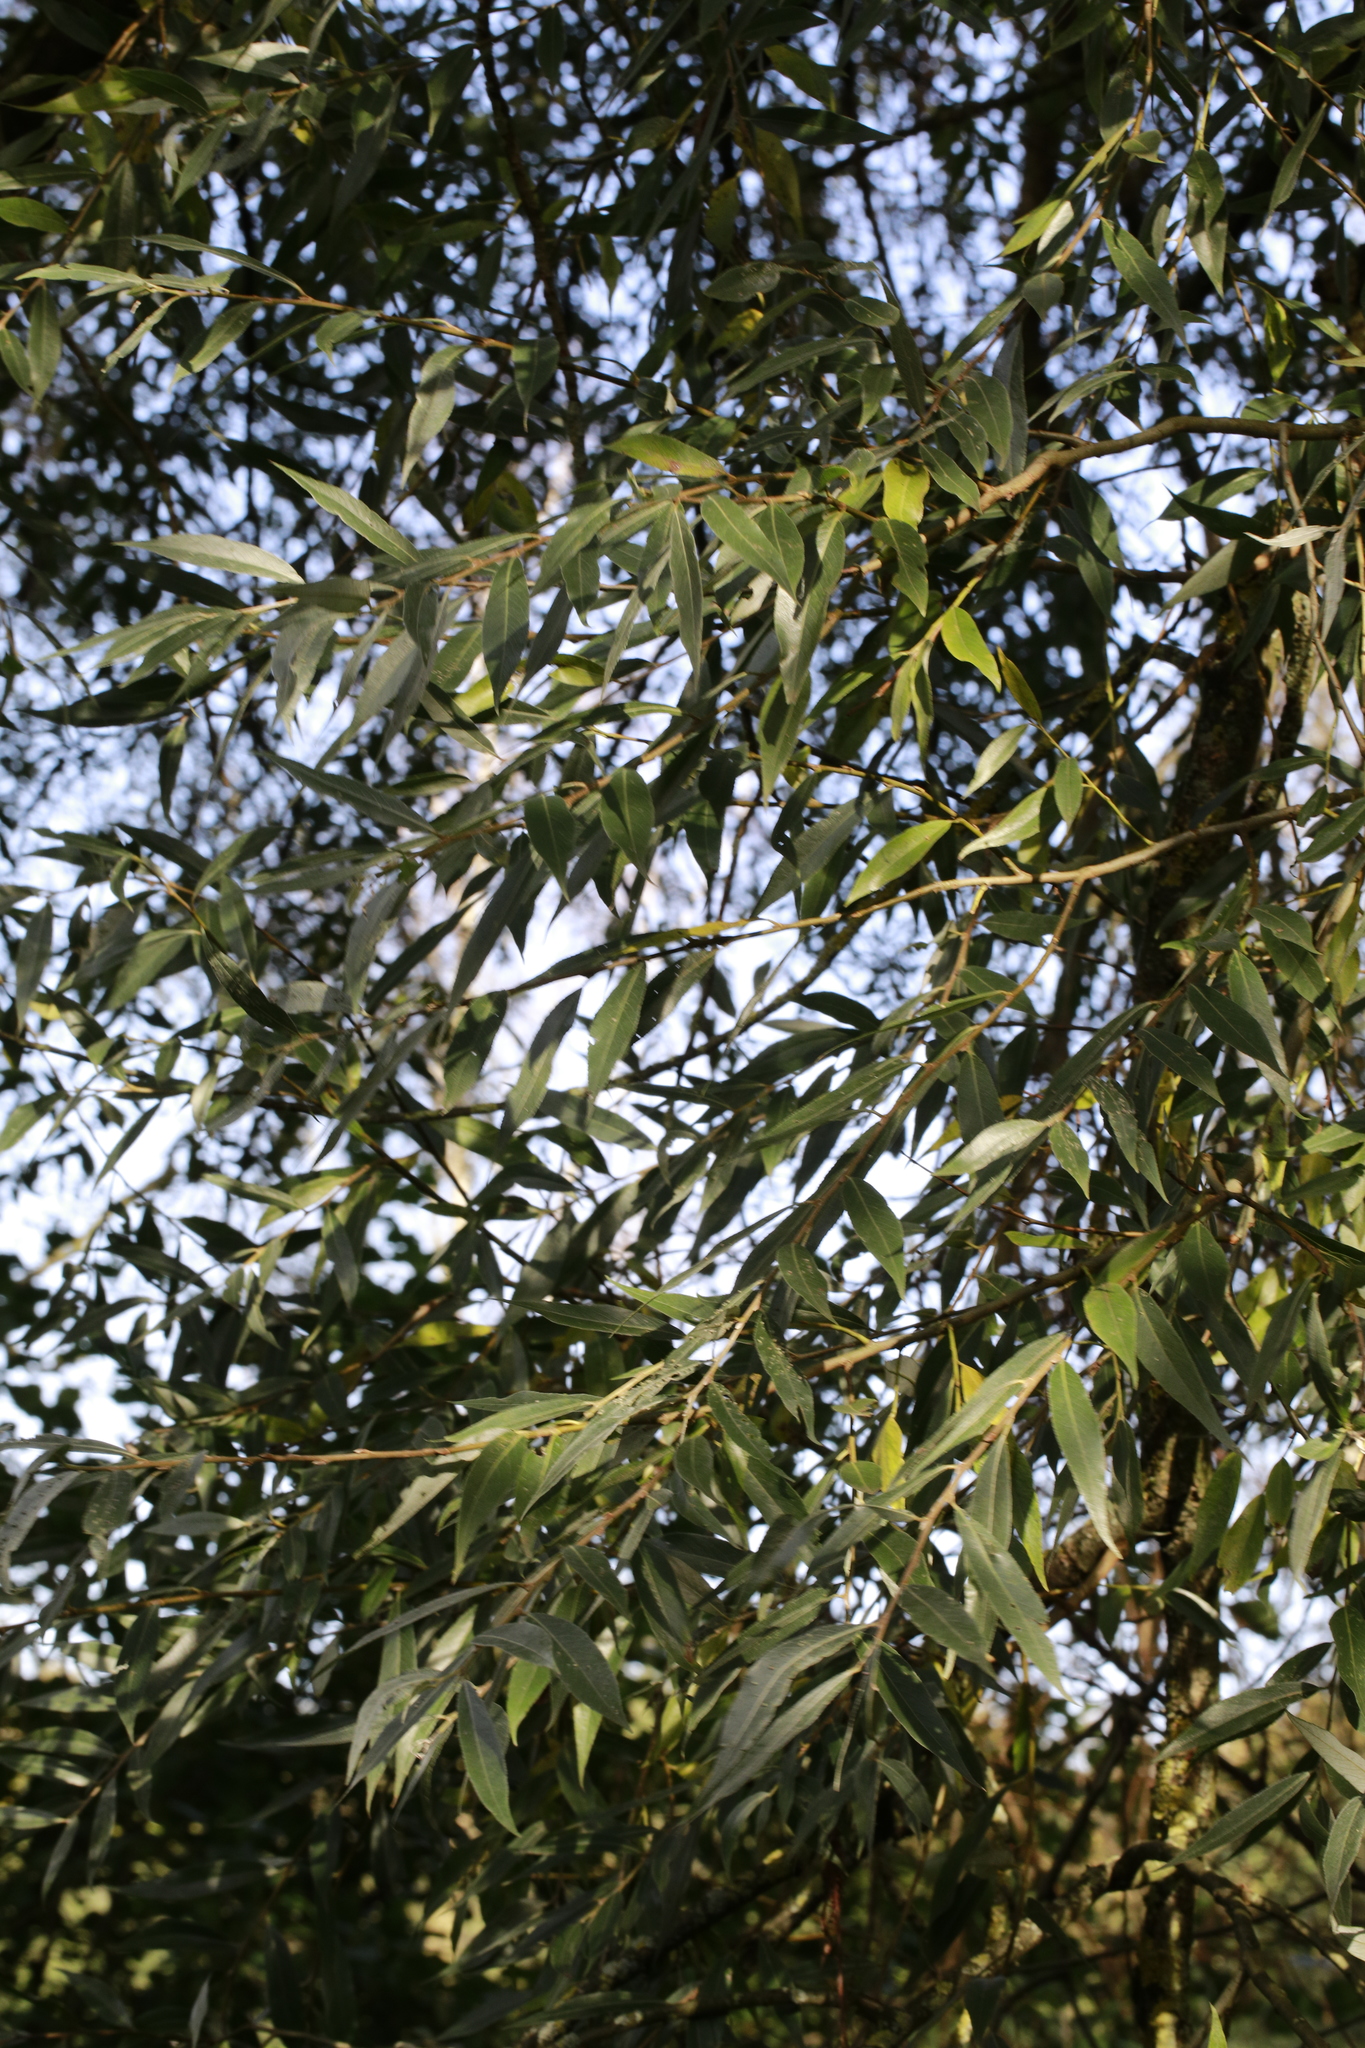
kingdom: Plantae
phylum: Tracheophyta
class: Magnoliopsida
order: Malpighiales
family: Salicaceae
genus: Salix
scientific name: Salix alba
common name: White willow
